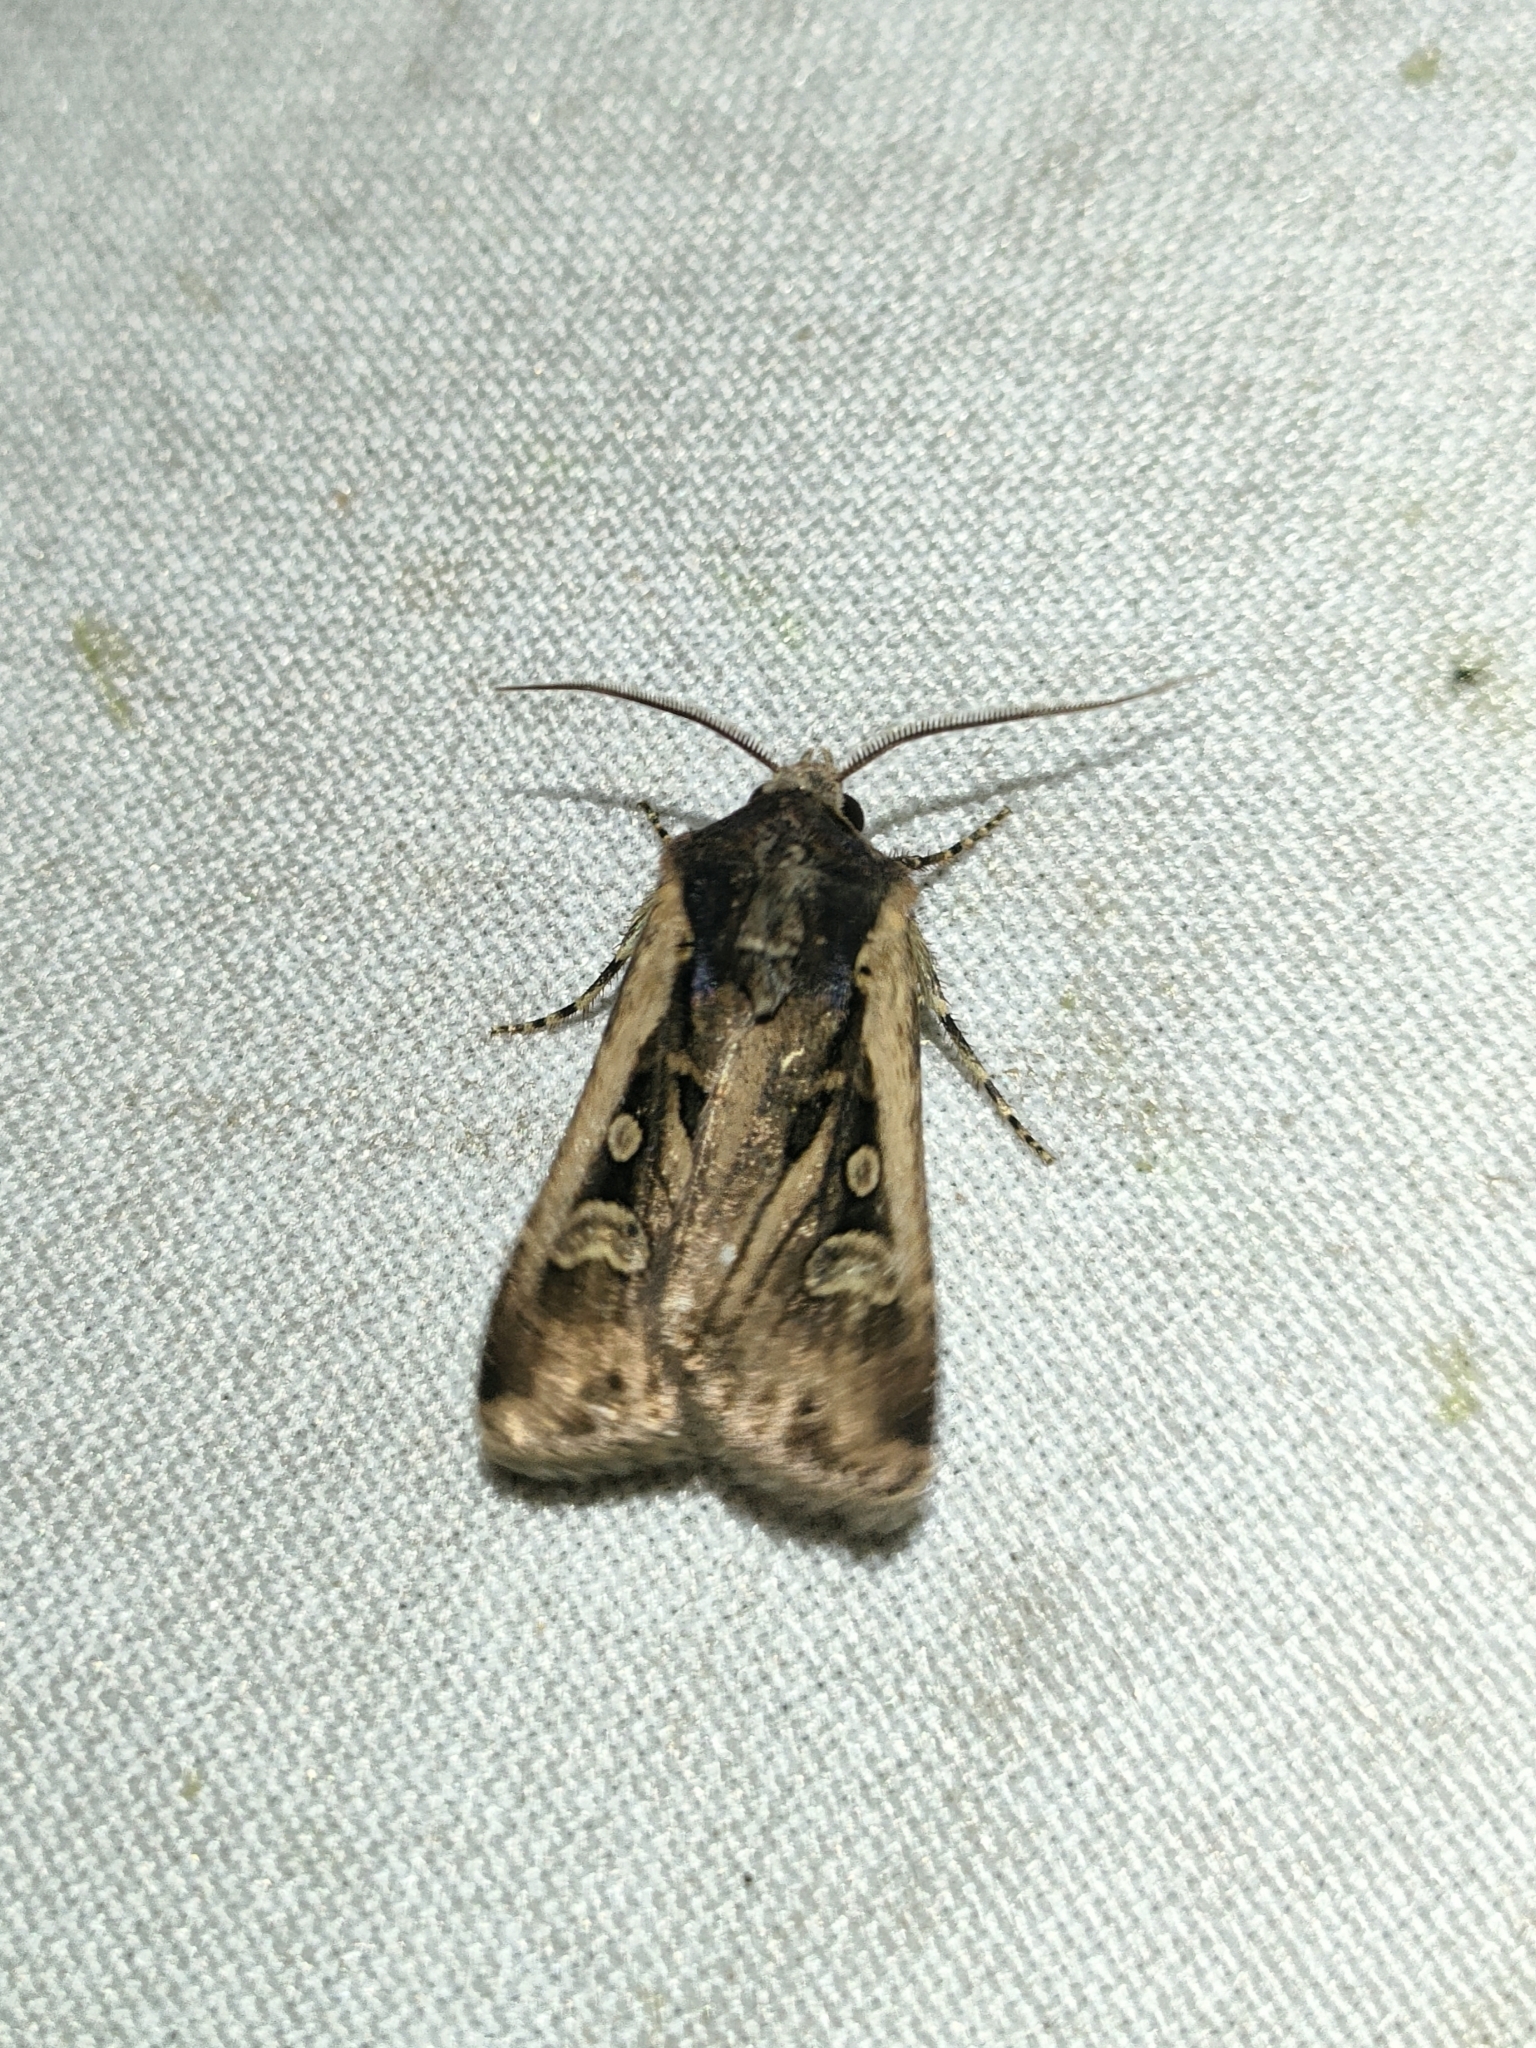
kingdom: Animalia
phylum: Arthropoda
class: Insecta
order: Lepidoptera
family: Noctuidae
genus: Euxoa
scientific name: Euxoa temera
